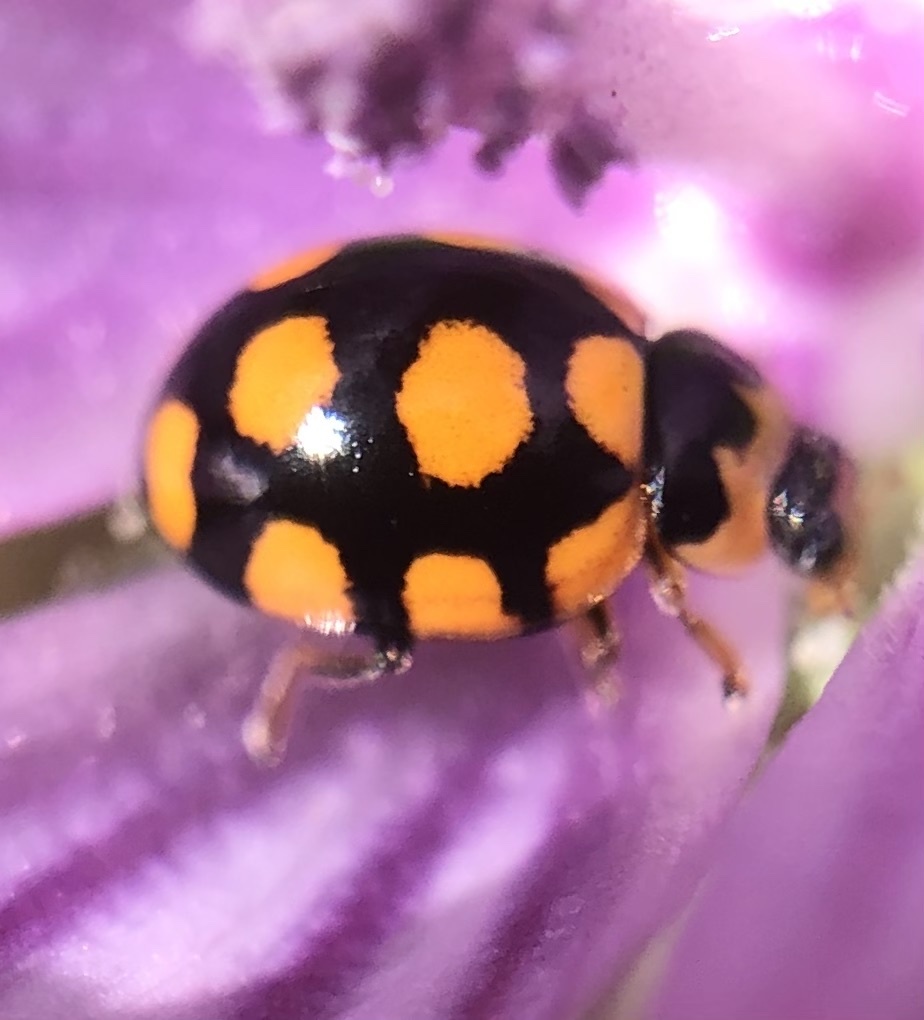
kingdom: Animalia
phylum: Arthropoda
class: Insecta
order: Coleoptera
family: Coccinellidae
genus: Coccinula
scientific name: Coccinula quatuordecimpustulata
